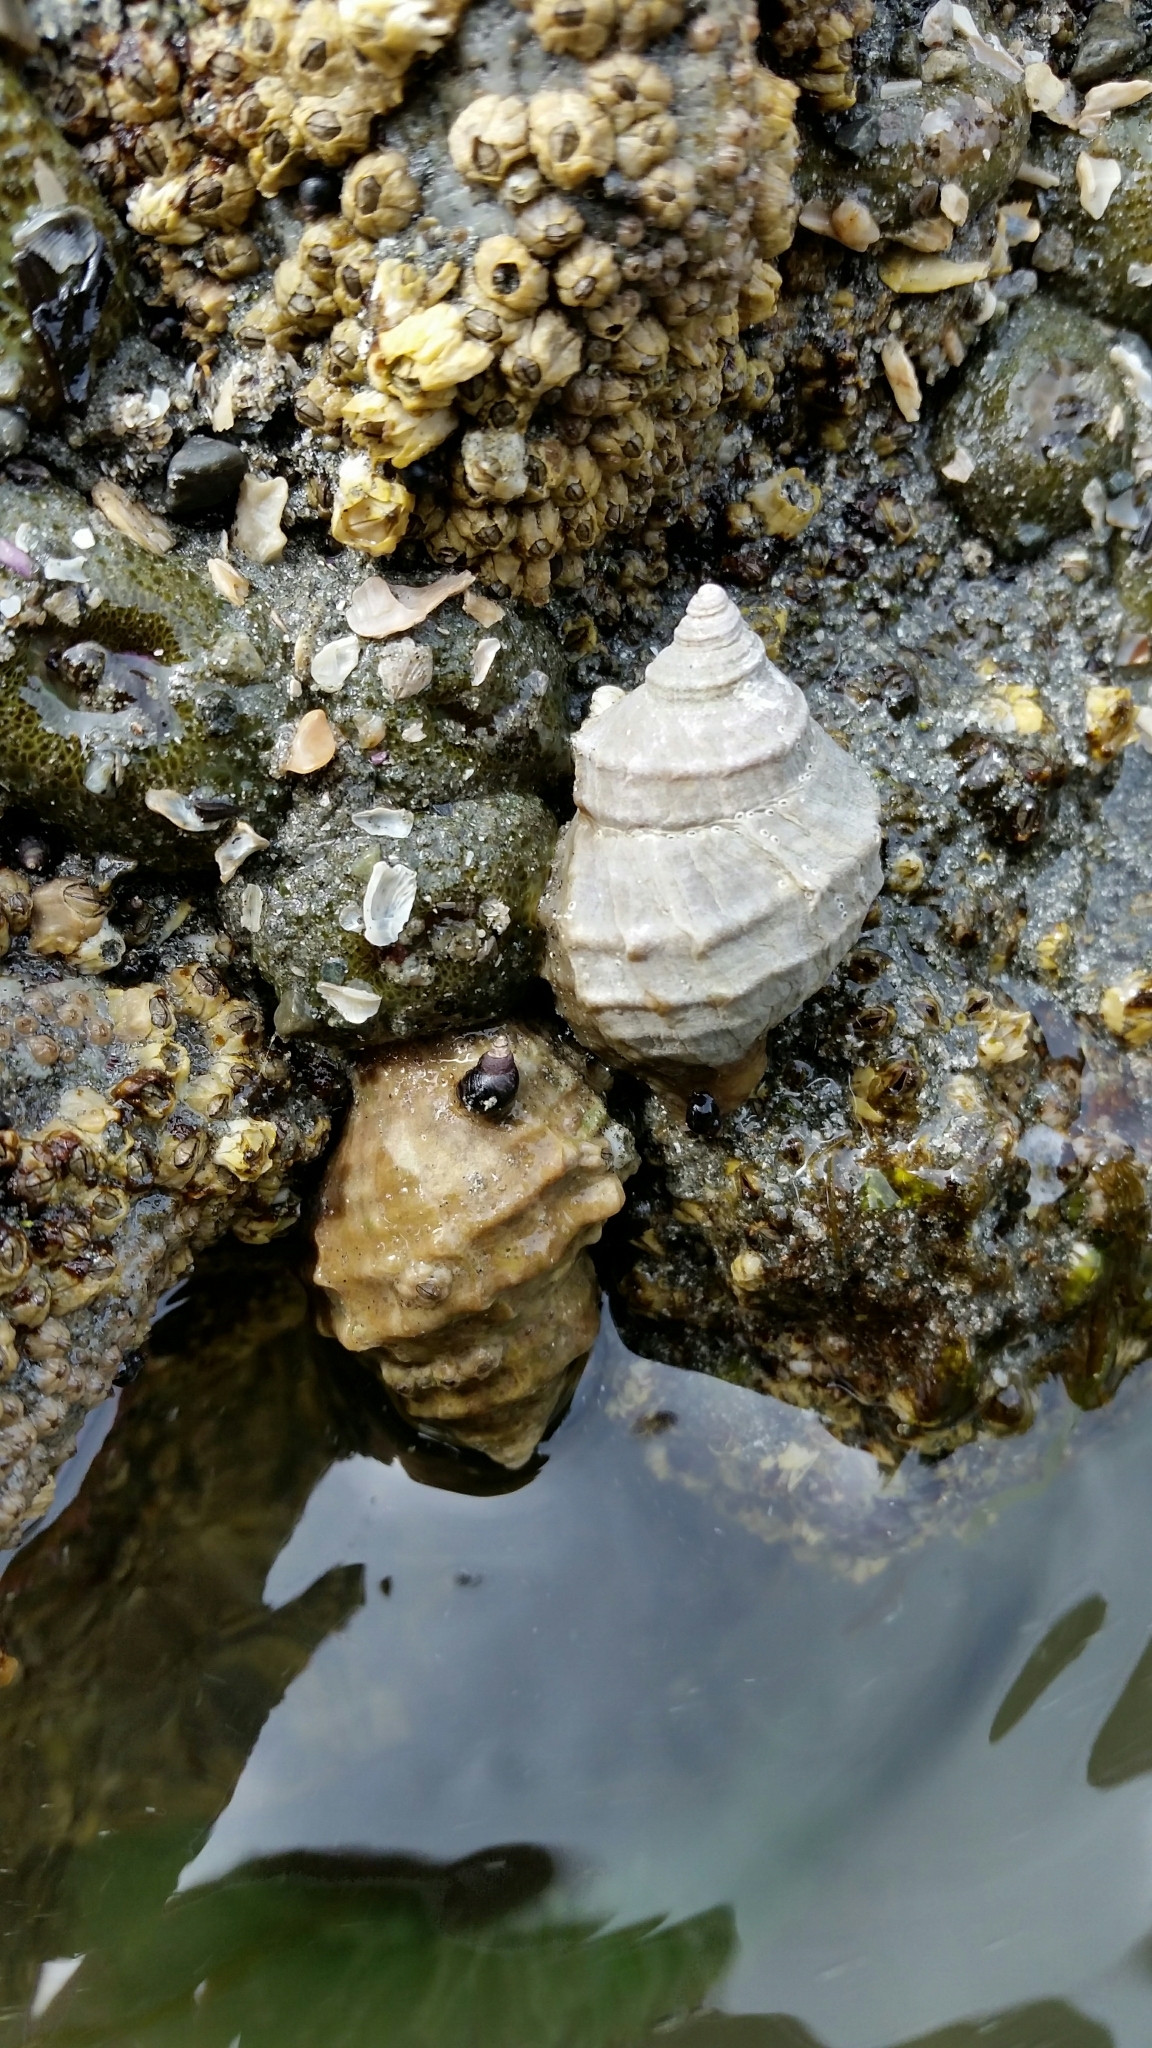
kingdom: Animalia
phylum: Mollusca
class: Gastropoda
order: Neogastropoda
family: Muricidae
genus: Nucella
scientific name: Nucella lamellosa
